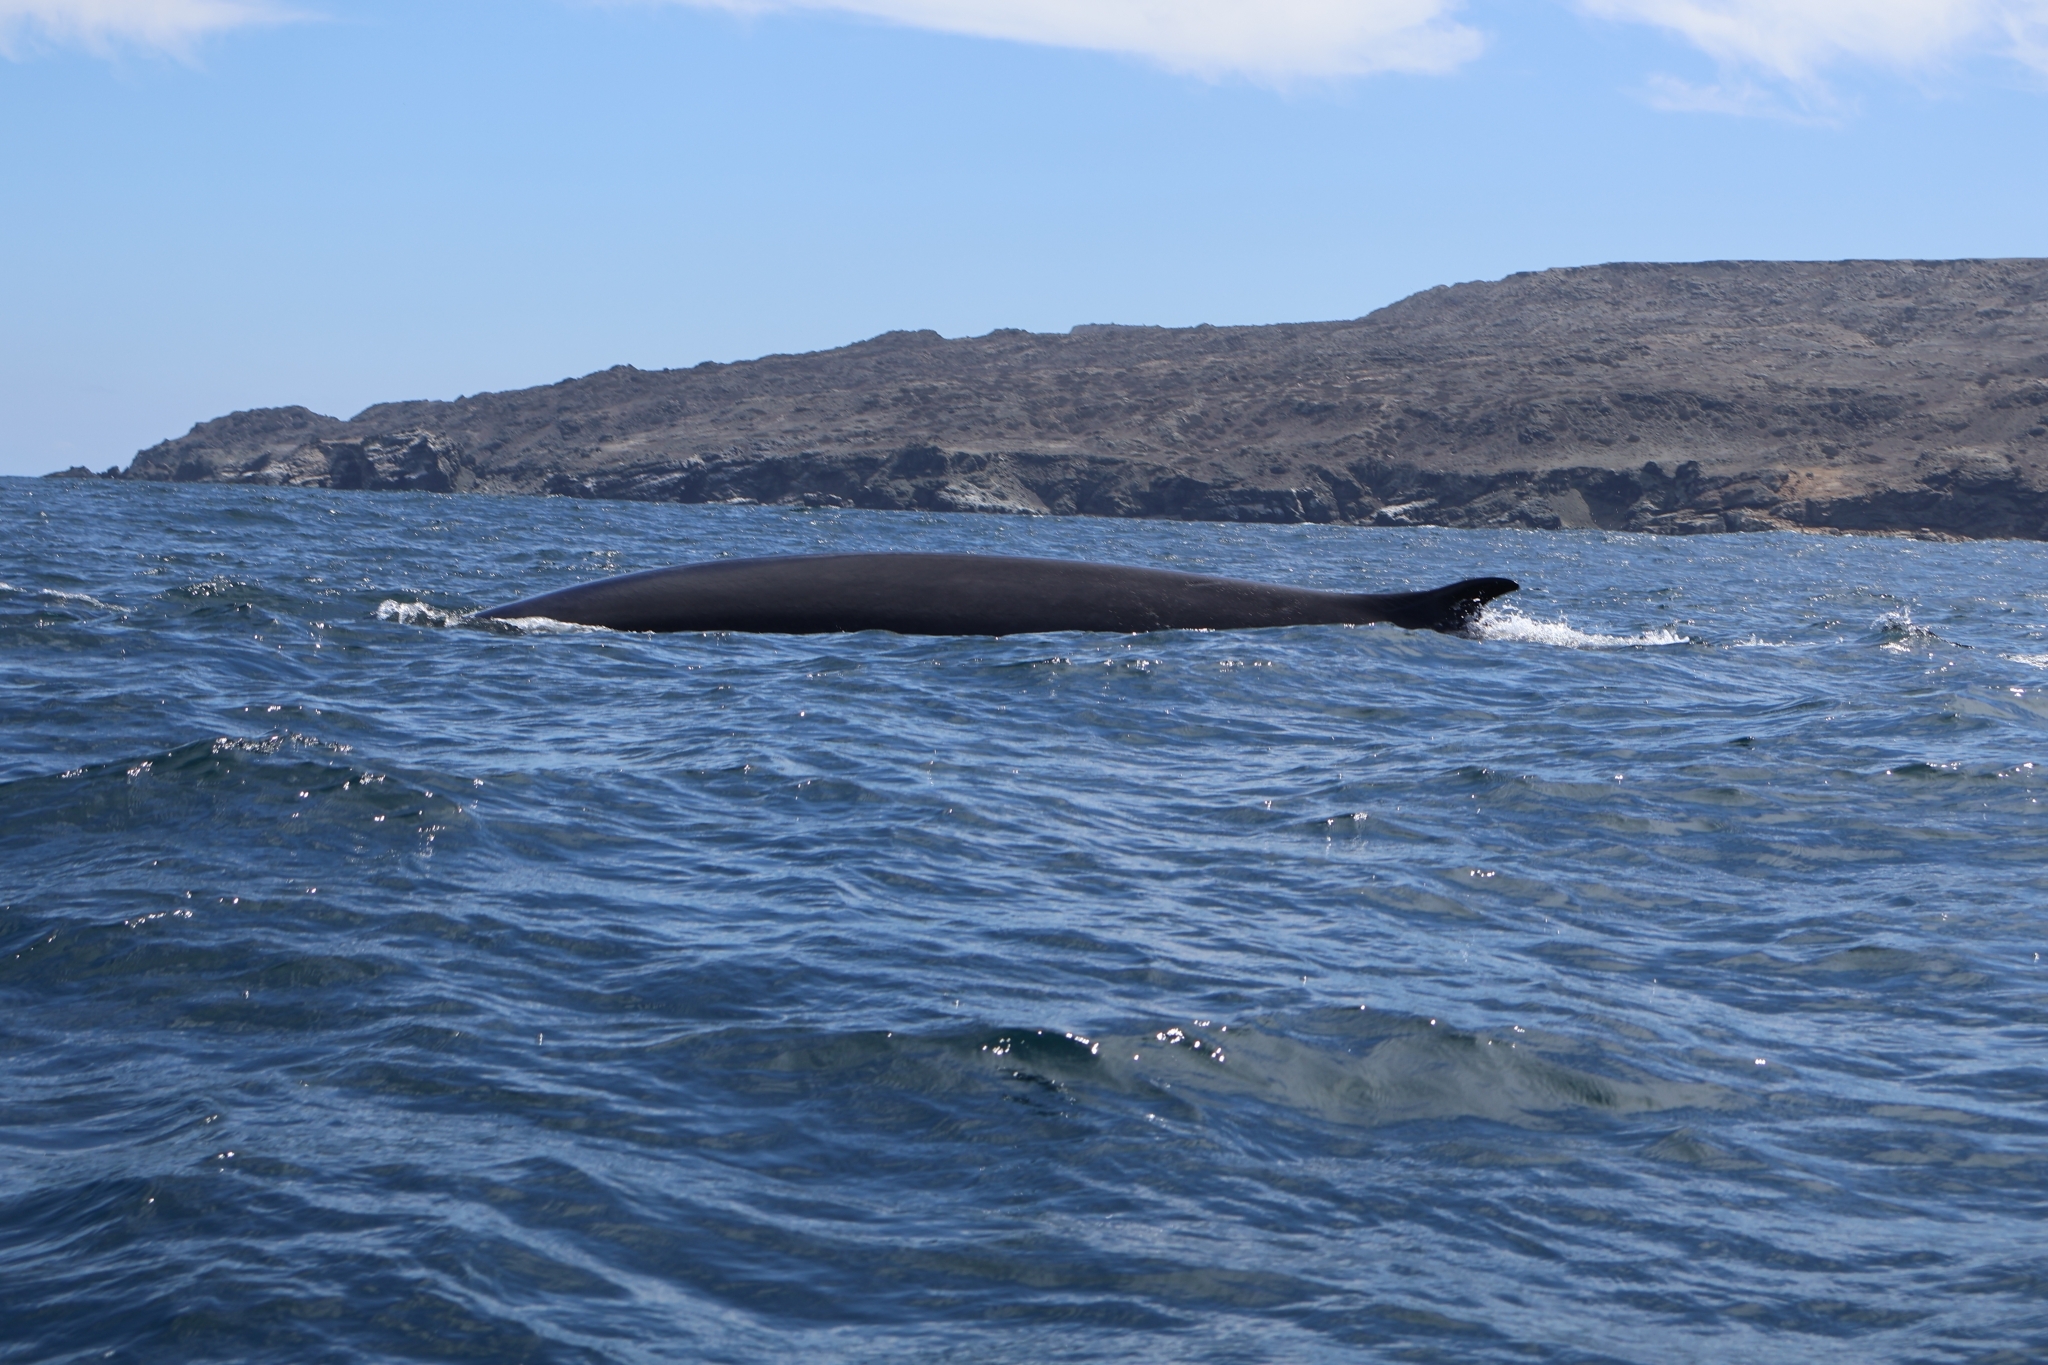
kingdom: Animalia
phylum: Chordata
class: Mammalia
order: Cetacea
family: Balaenopteridae
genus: Balaenoptera
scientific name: Balaenoptera physalus
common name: Fin whale
